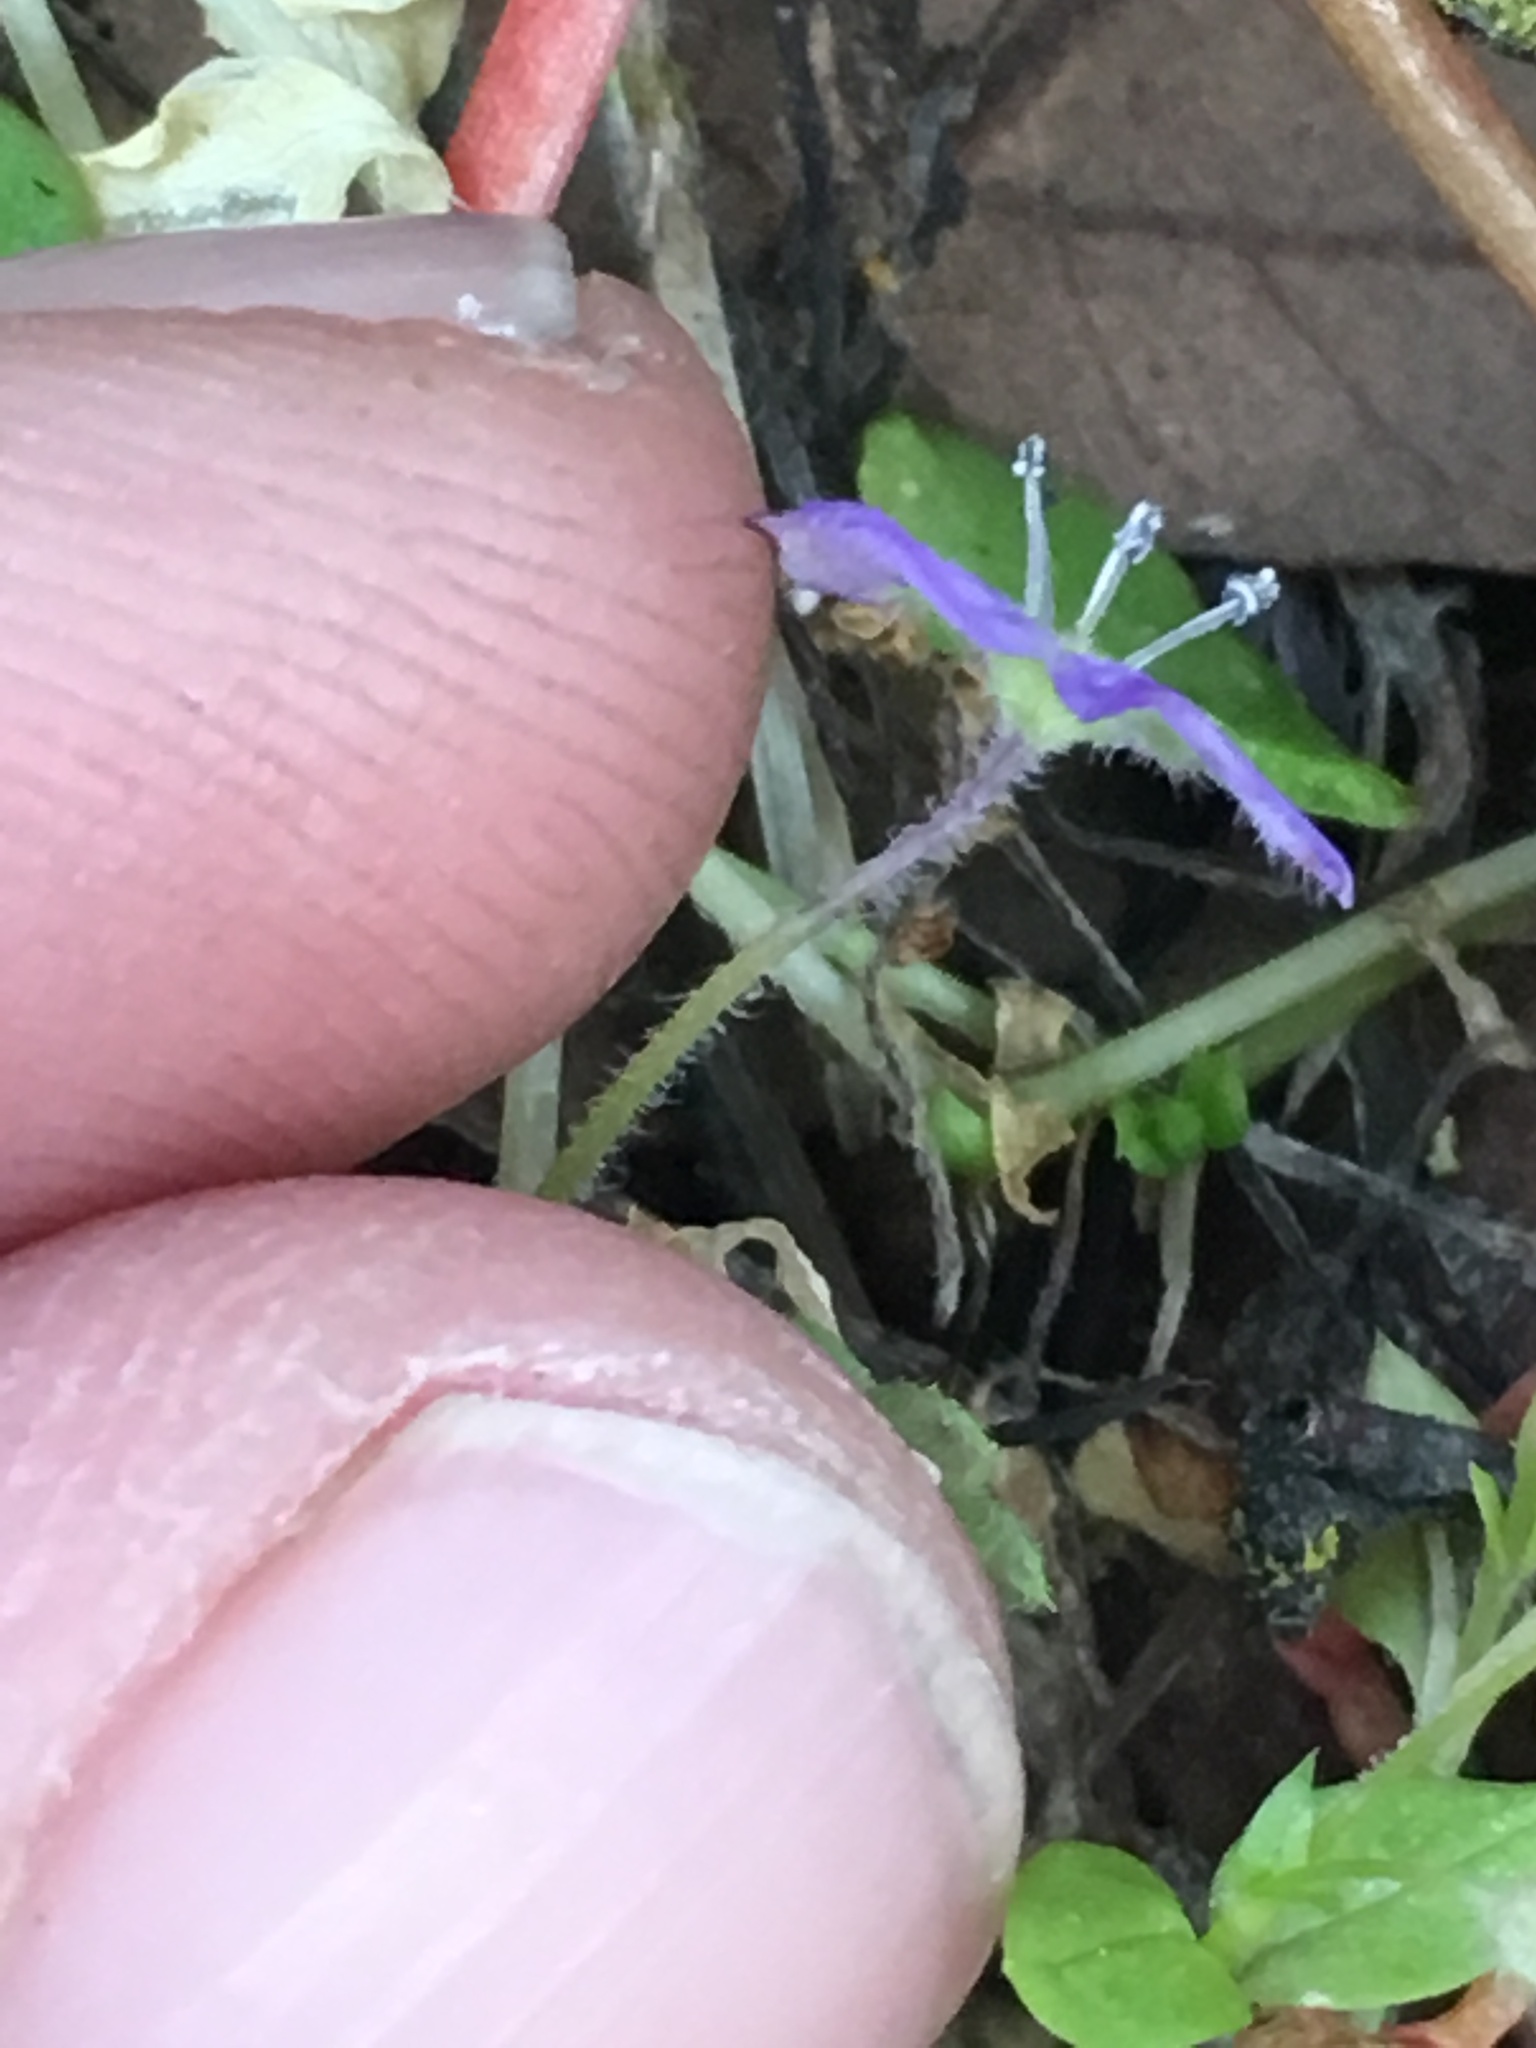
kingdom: Plantae
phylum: Tracheophyta
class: Magnoliopsida
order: Boraginales
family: Hydrophyllaceae
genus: Nemophila
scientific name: Nemophila pulchella
